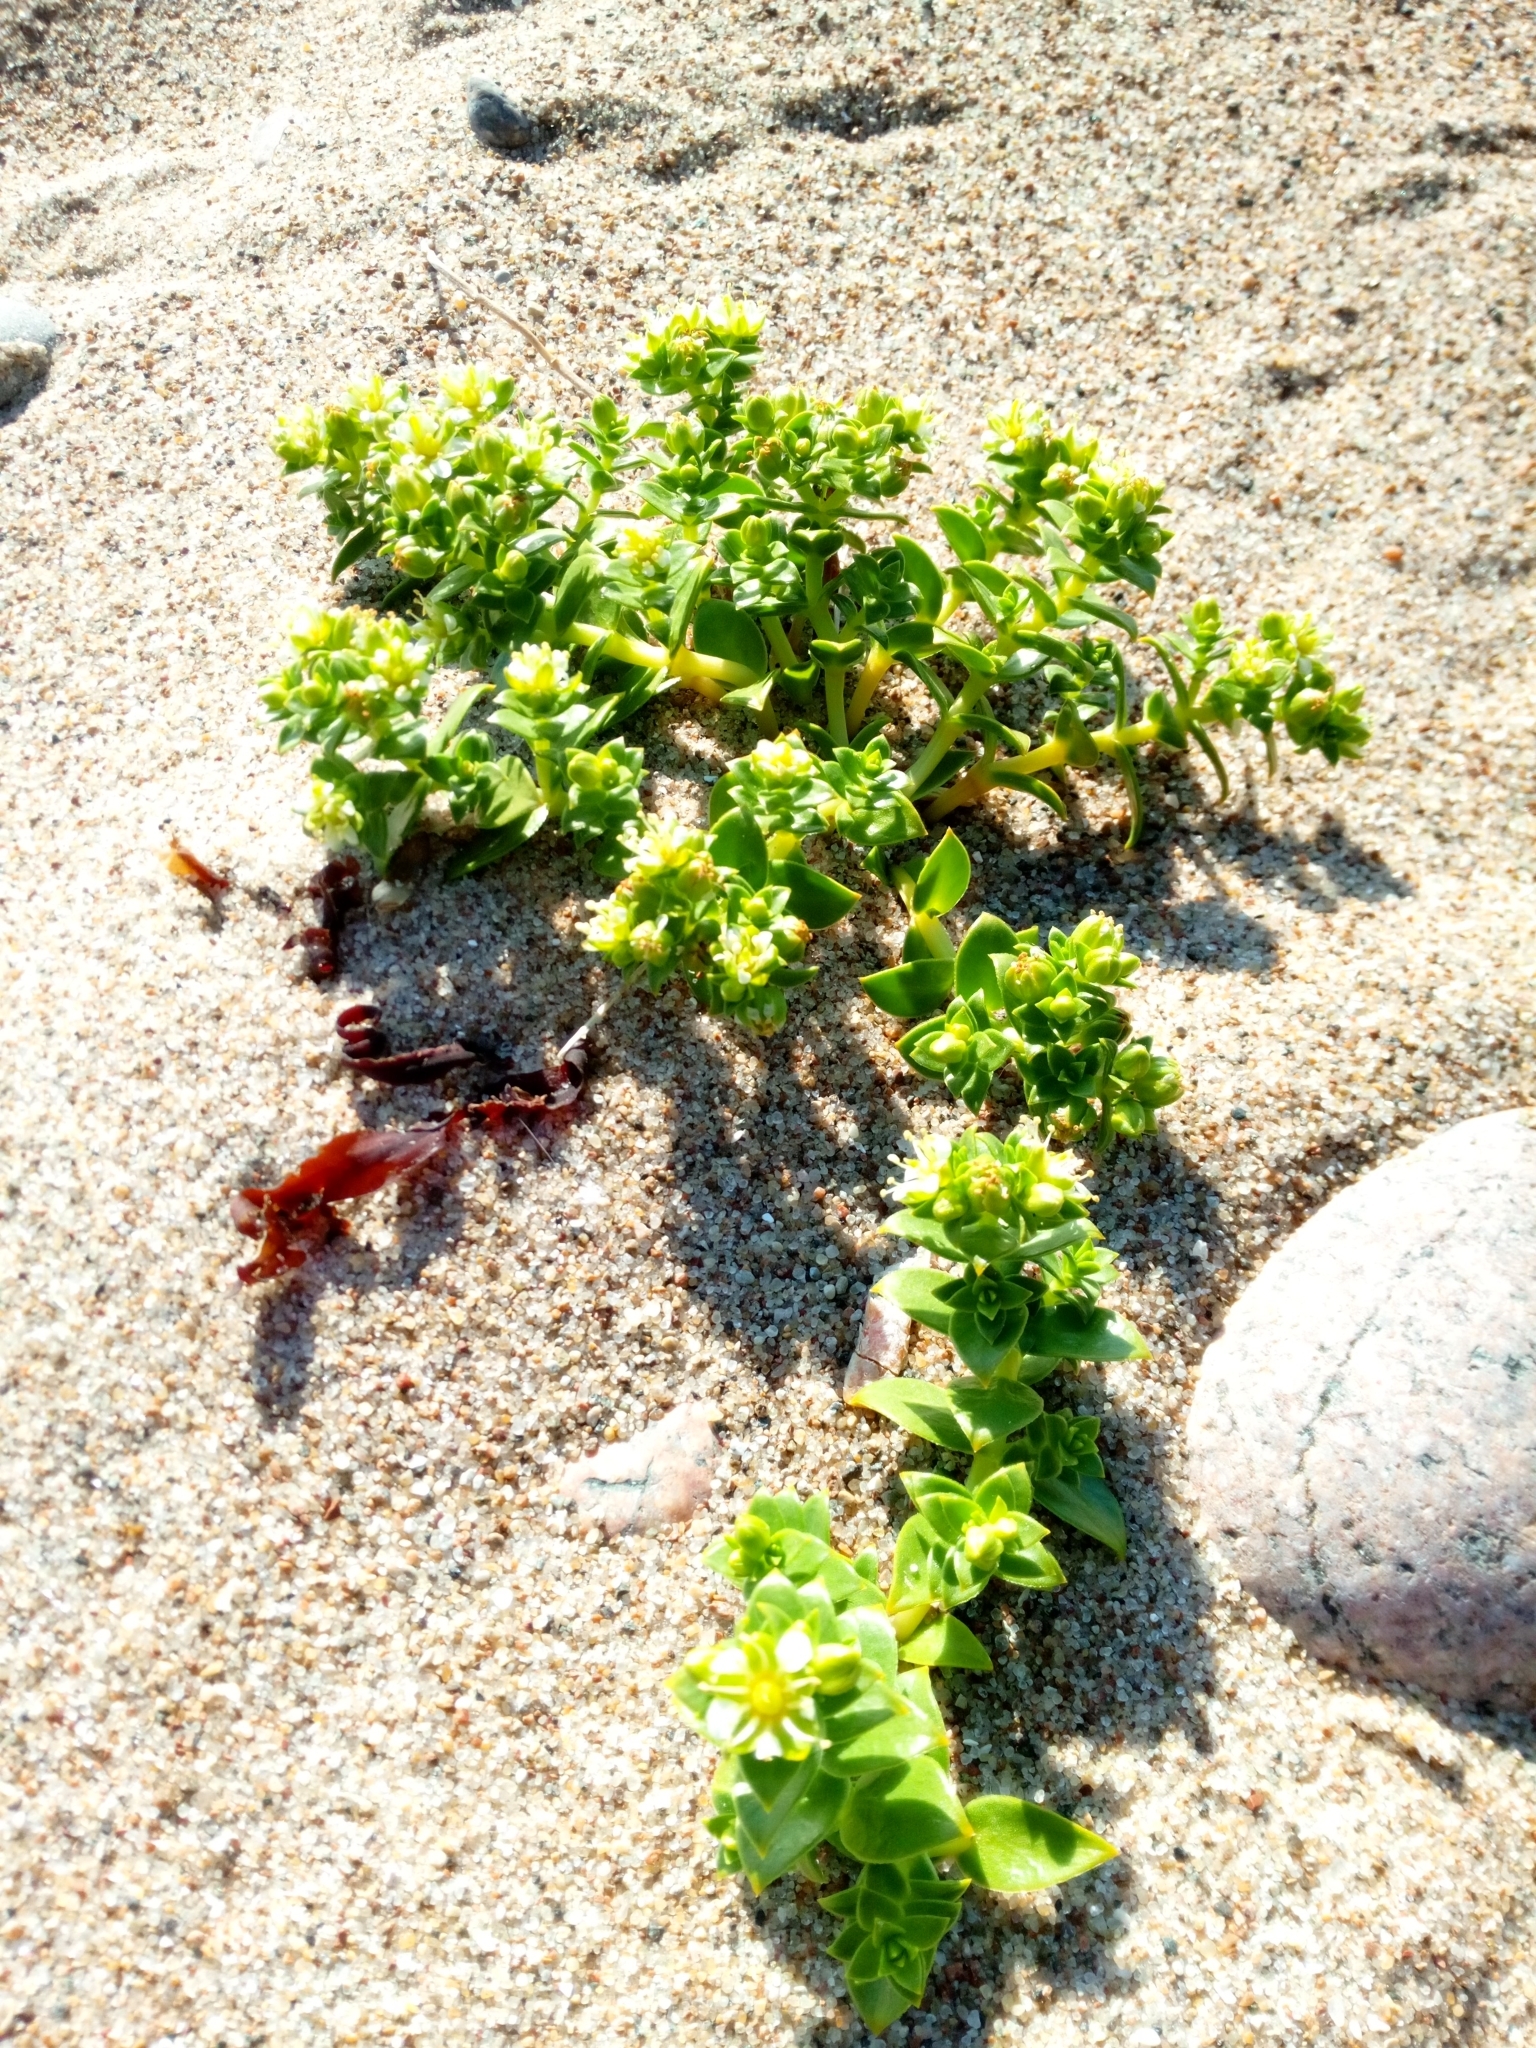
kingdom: Plantae
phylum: Tracheophyta
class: Magnoliopsida
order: Caryophyllales
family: Caryophyllaceae
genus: Honckenya
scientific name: Honckenya peploides
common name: Sea sandwort
